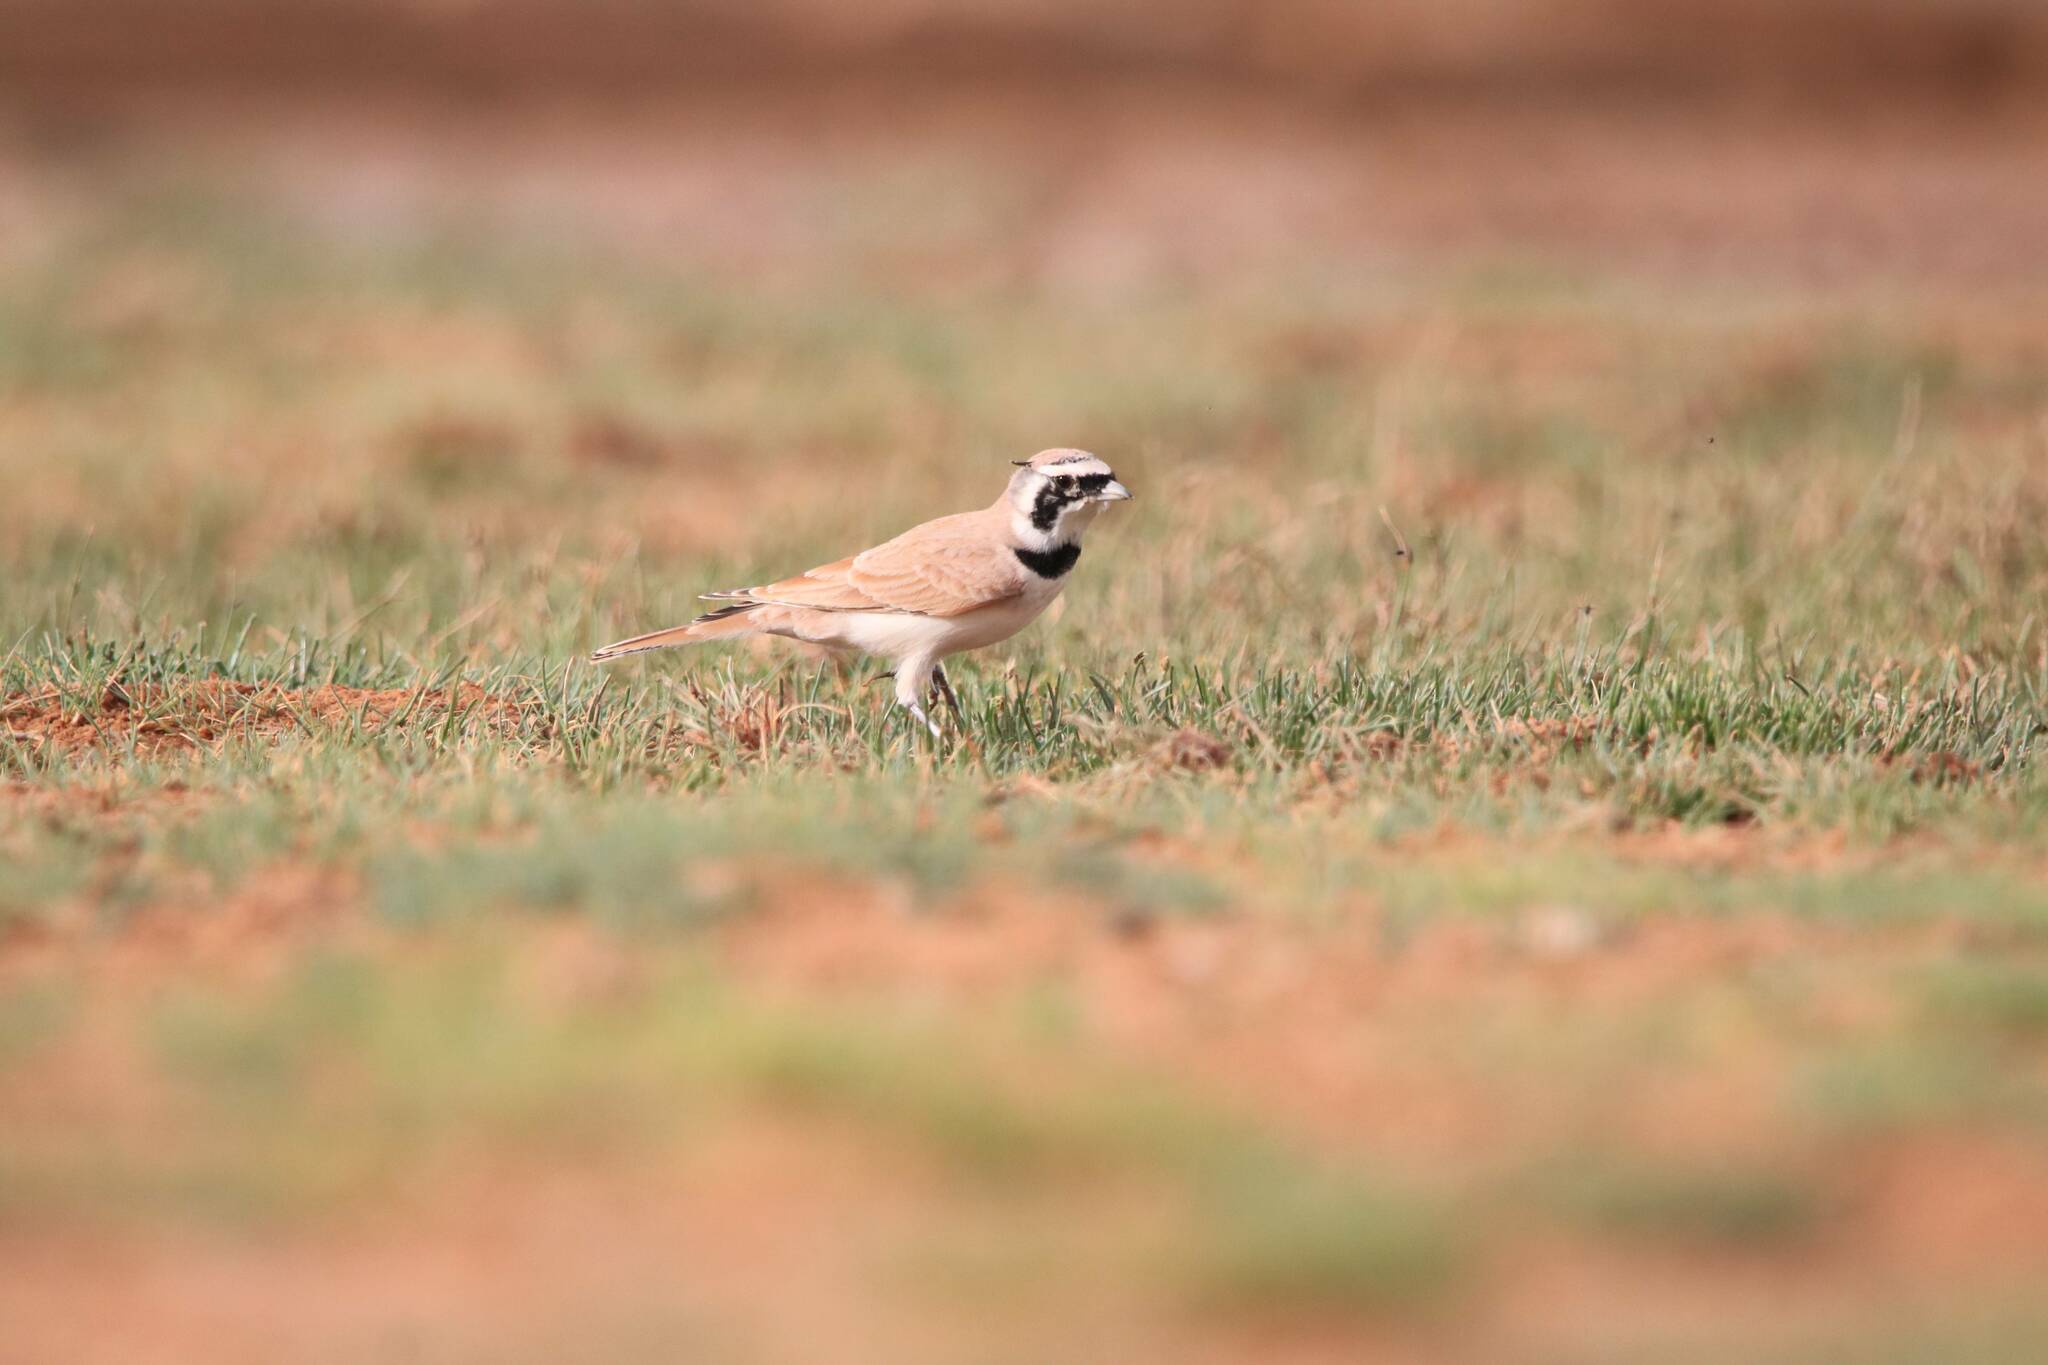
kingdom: Animalia
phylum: Chordata
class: Aves
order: Passeriformes
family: Alaudidae
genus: Eremophila
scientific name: Eremophila bilopha
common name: Temminck's lark
